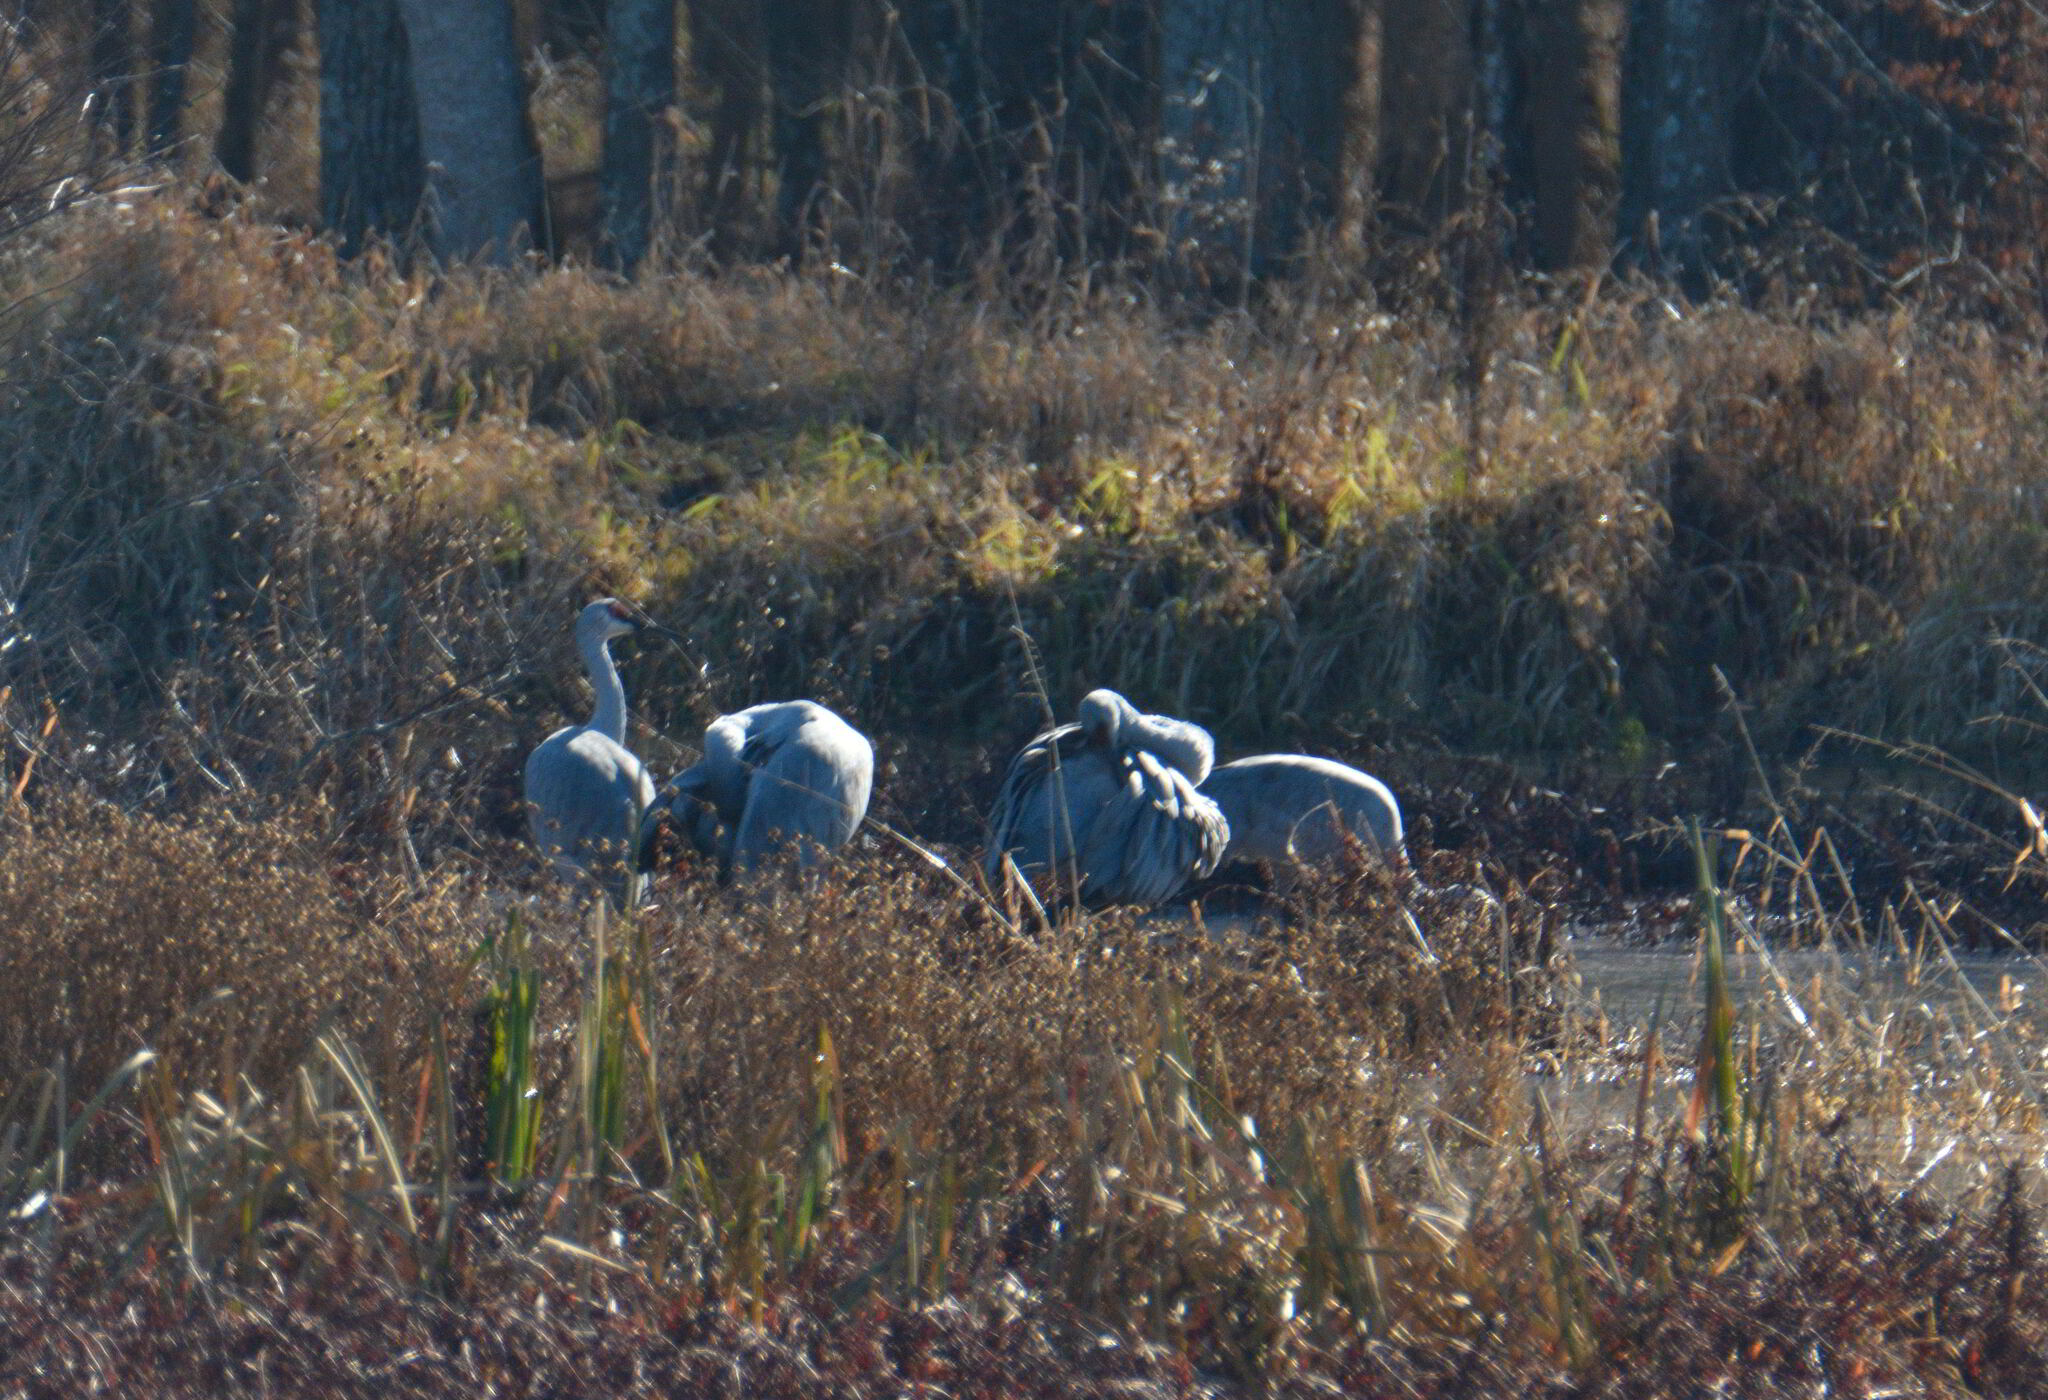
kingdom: Animalia
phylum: Chordata
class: Aves
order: Gruiformes
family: Gruidae
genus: Grus
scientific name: Grus canadensis
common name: Sandhill crane
